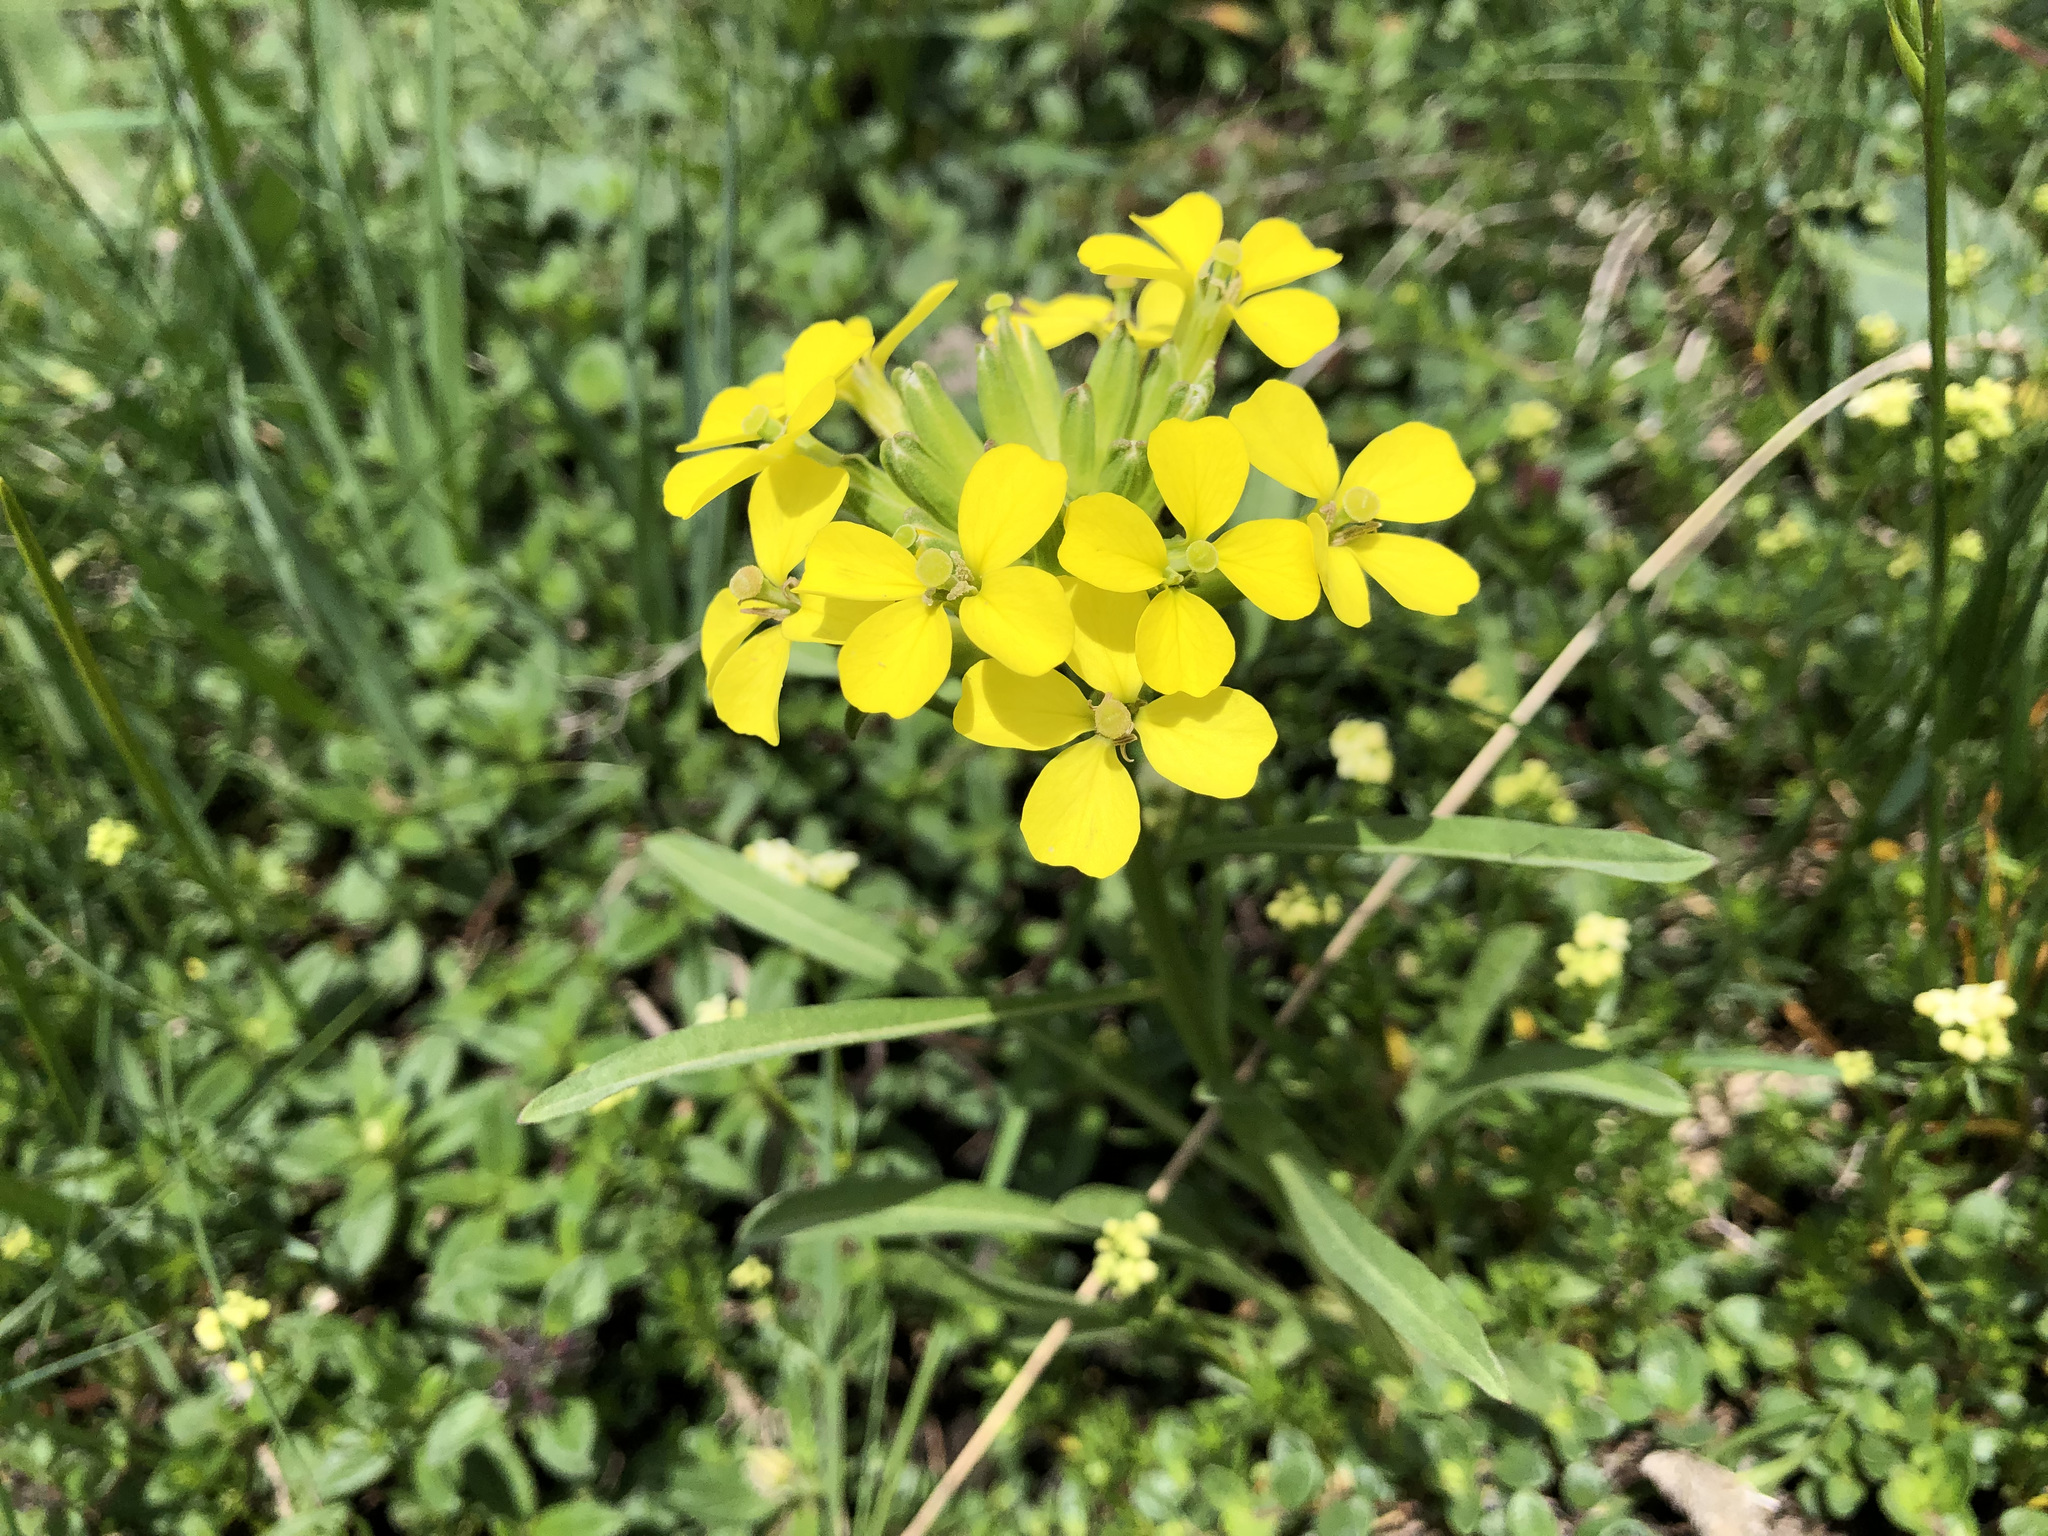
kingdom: Plantae
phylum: Tracheophyta
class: Magnoliopsida
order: Brassicales
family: Brassicaceae
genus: Erysimum
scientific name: Erysimum rhaeticum
